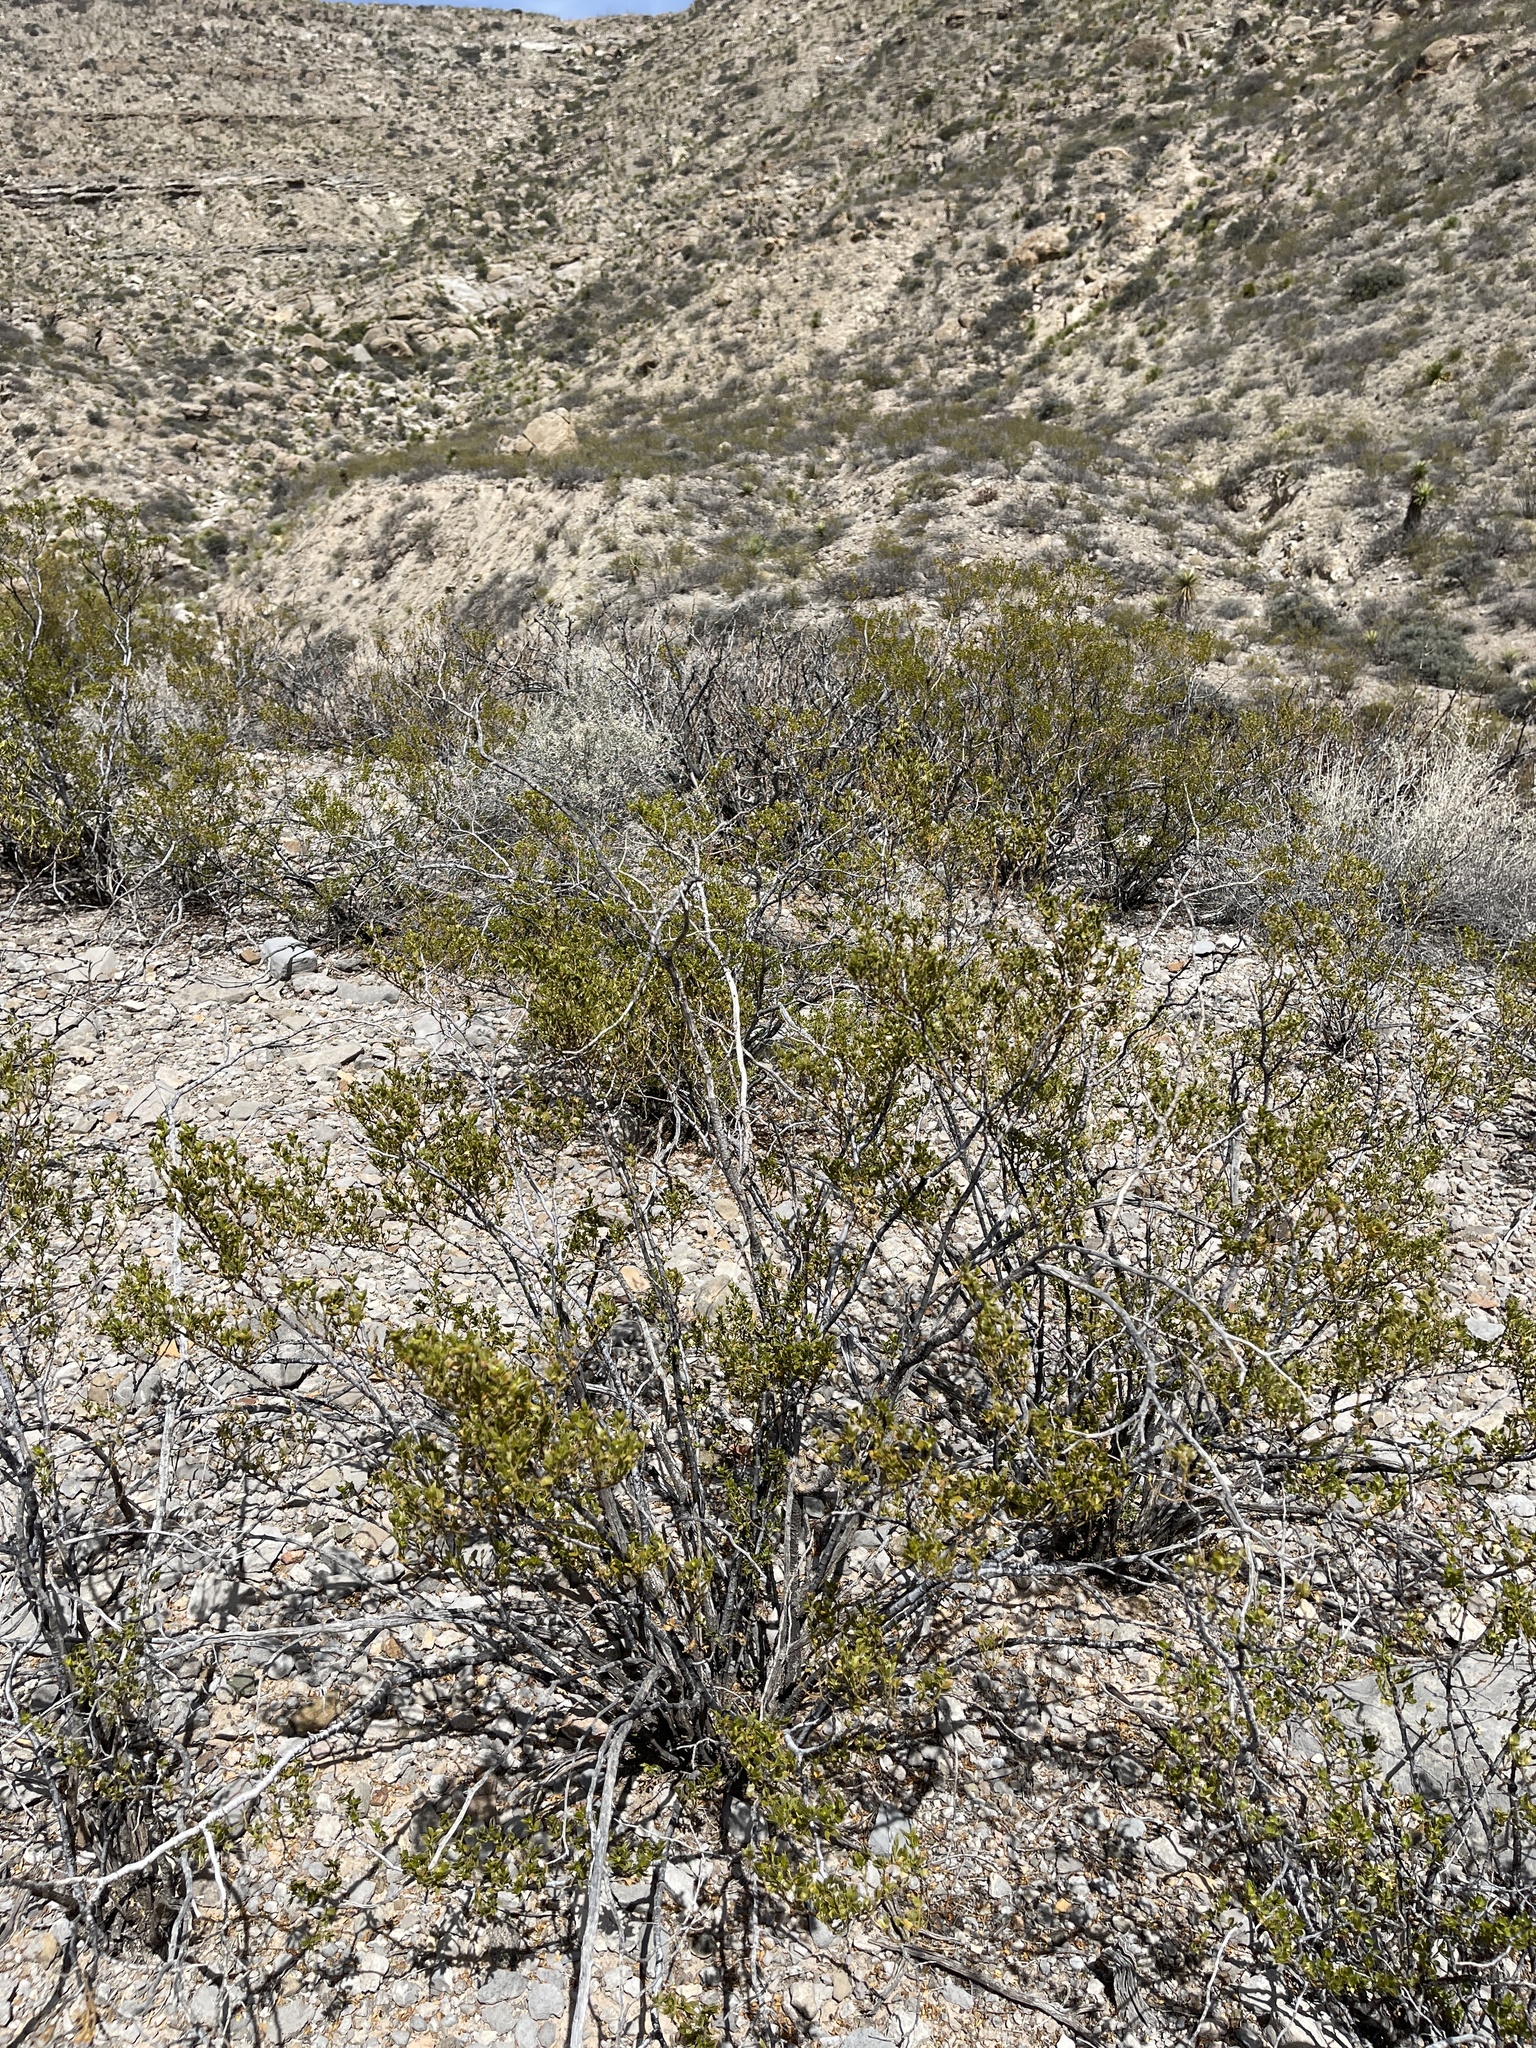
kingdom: Plantae
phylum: Tracheophyta
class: Magnoliopsida
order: Zygophyllales
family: Zygophyllaceae
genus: Larrea
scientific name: Larrea tridentata
